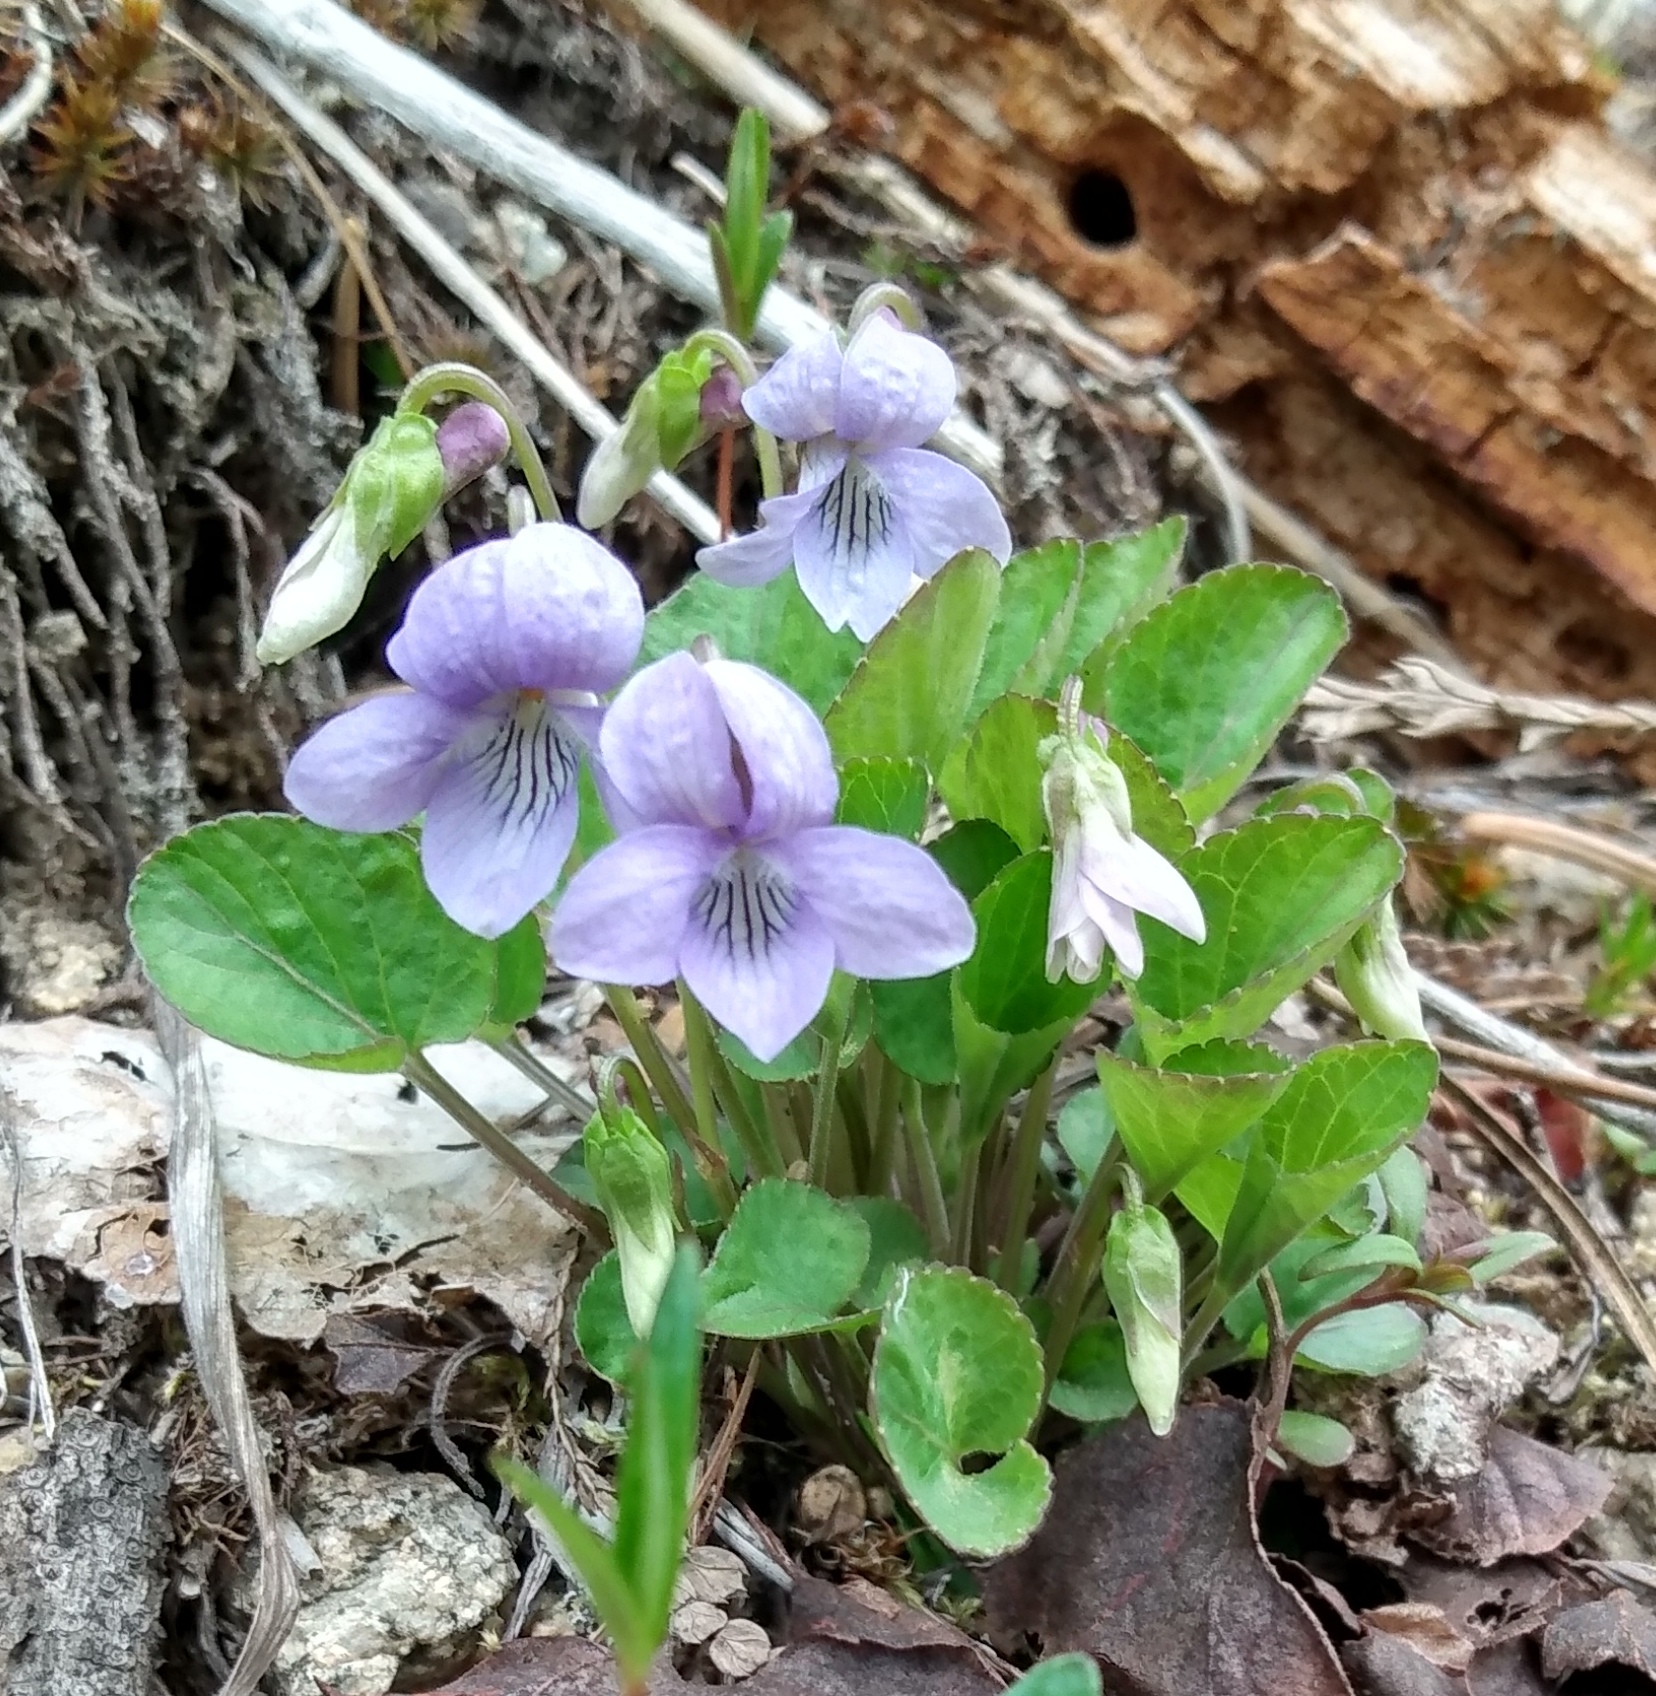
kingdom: Plantae
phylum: Tracheophyta
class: Magnoliopsida
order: Malpighiales
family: Violaceae
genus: Viola
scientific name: Viola adunca
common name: Sand violet
